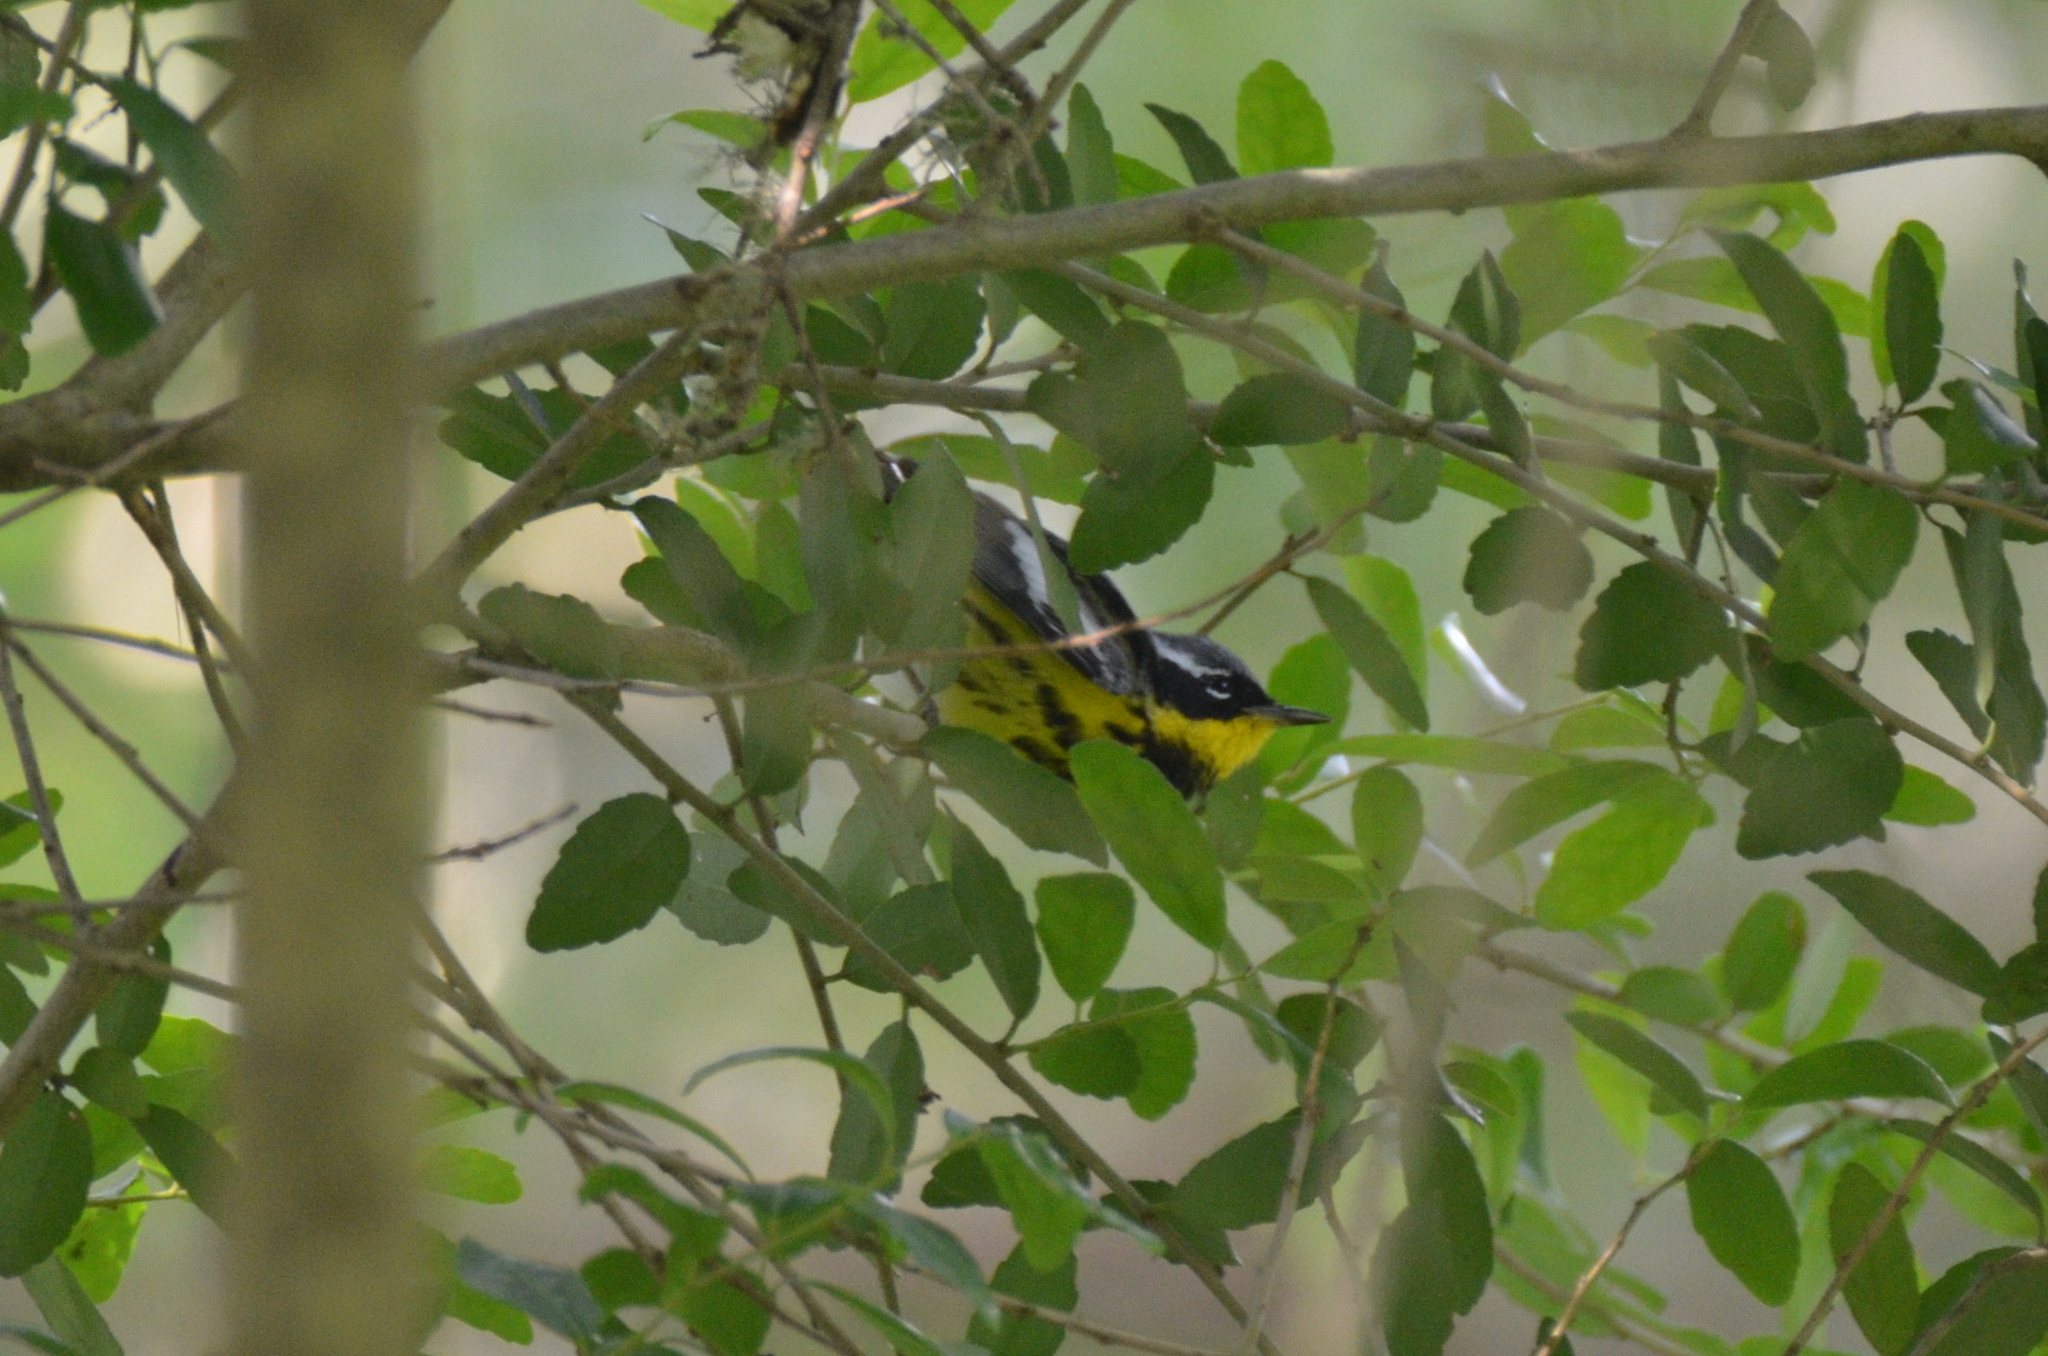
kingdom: Animalia
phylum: Chordata
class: Aves
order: Passeriformes
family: Parulidae
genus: Setophaga
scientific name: Setophaga magnolia
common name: Magnolia warbler
